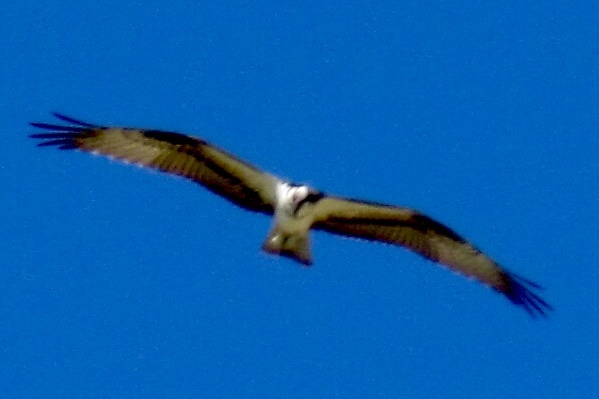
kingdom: Animalia
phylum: Chordata
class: Aves
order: Accipitriformes
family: Pandionidae
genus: Pandion
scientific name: Pandion haliaetus
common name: Osprey
